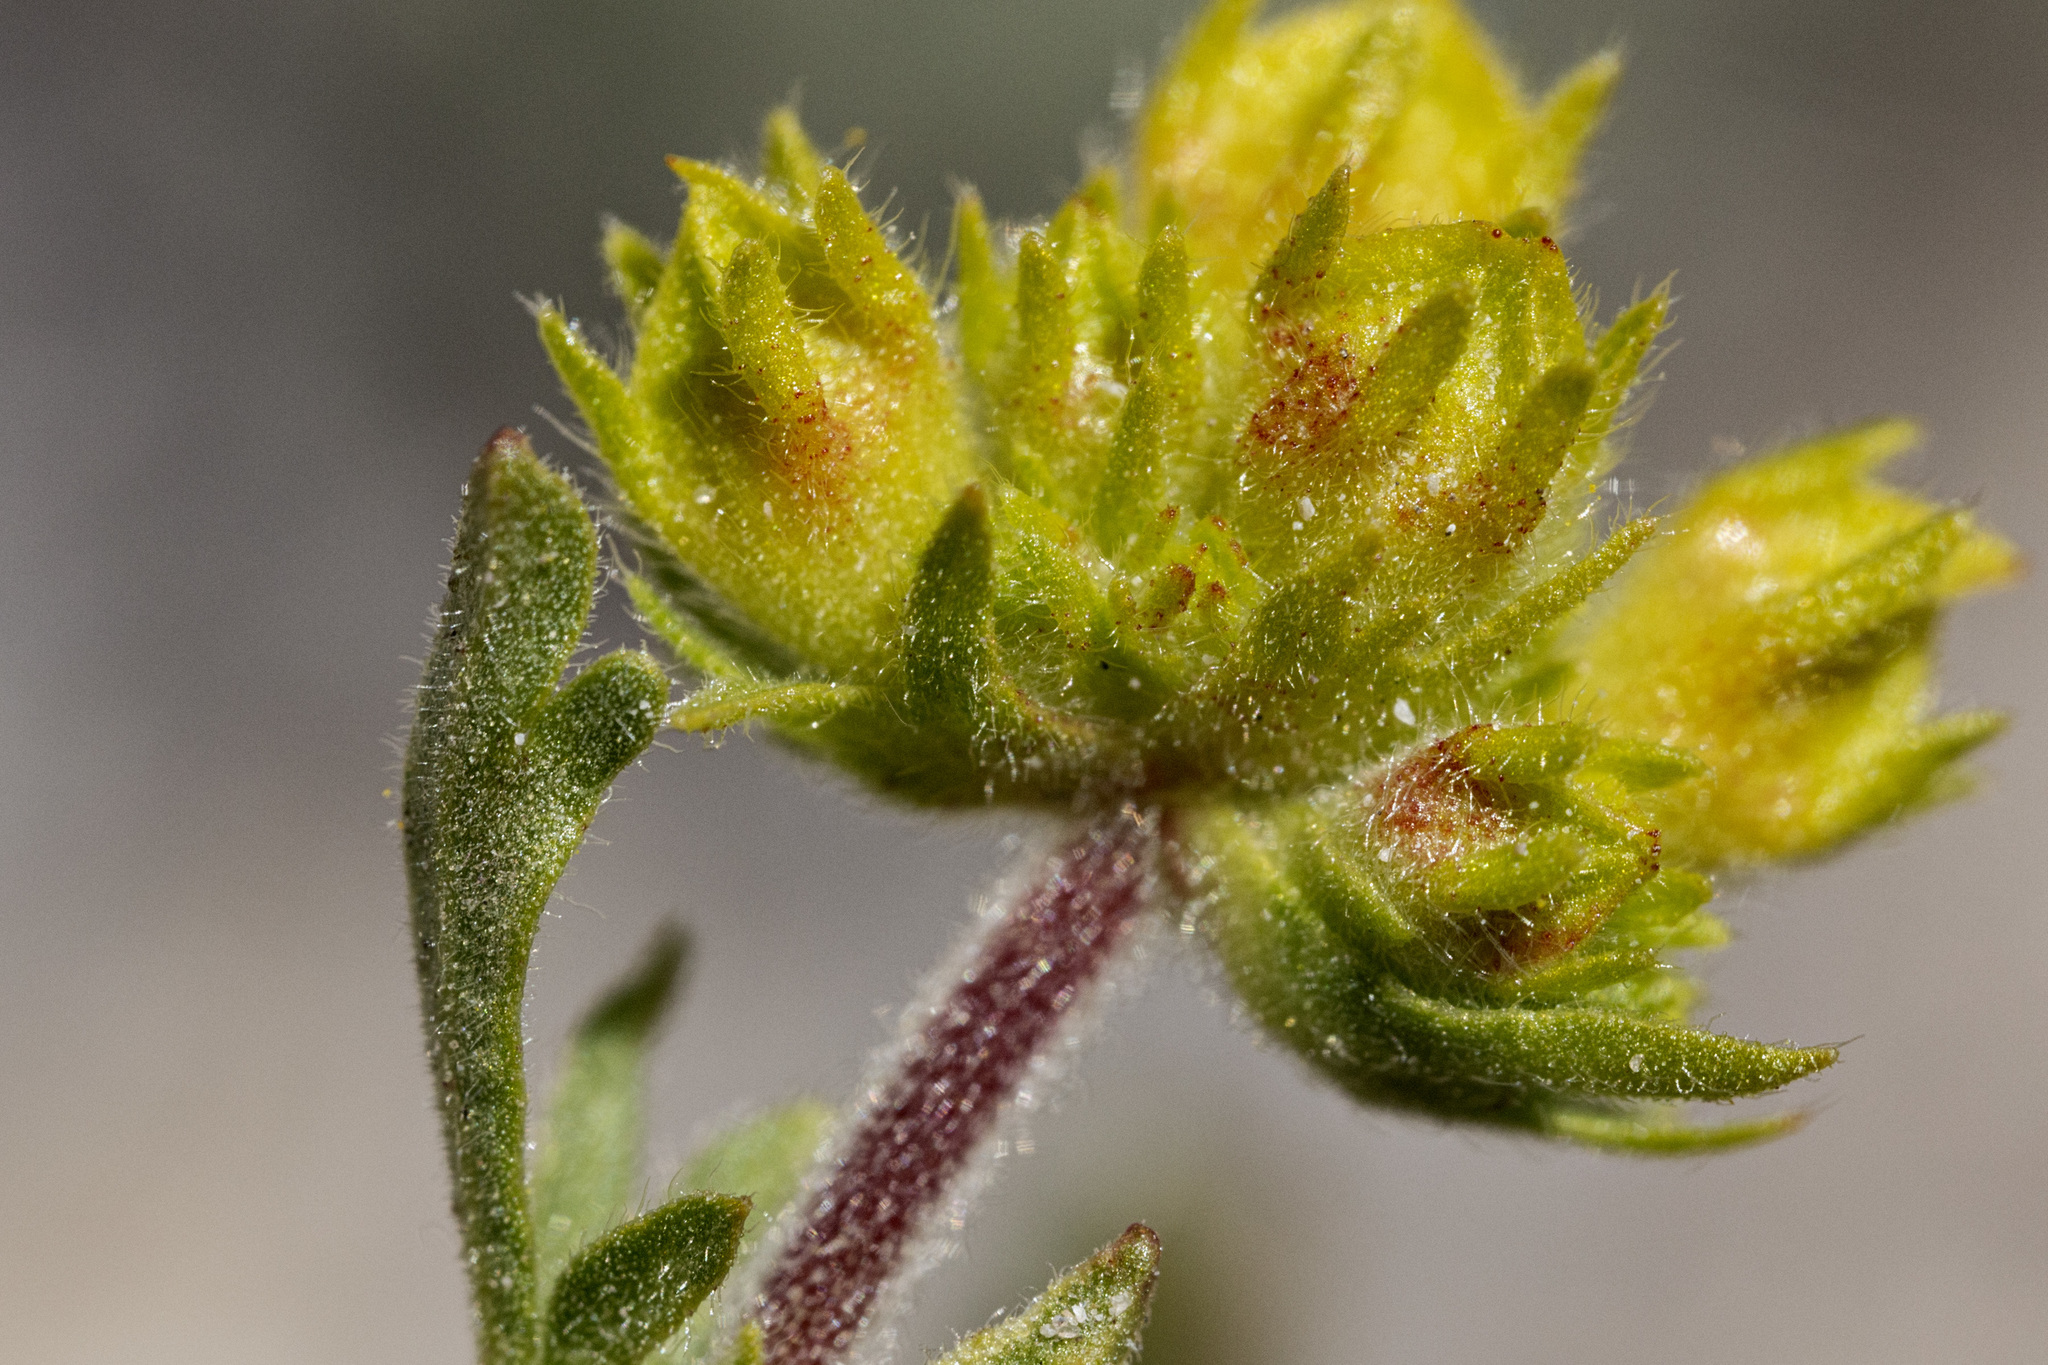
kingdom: Plantae
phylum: Tracheophyta
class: Magnoliopsida
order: Rosales
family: Rosaceae
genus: Potentilla
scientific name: Potentilla gordonii
